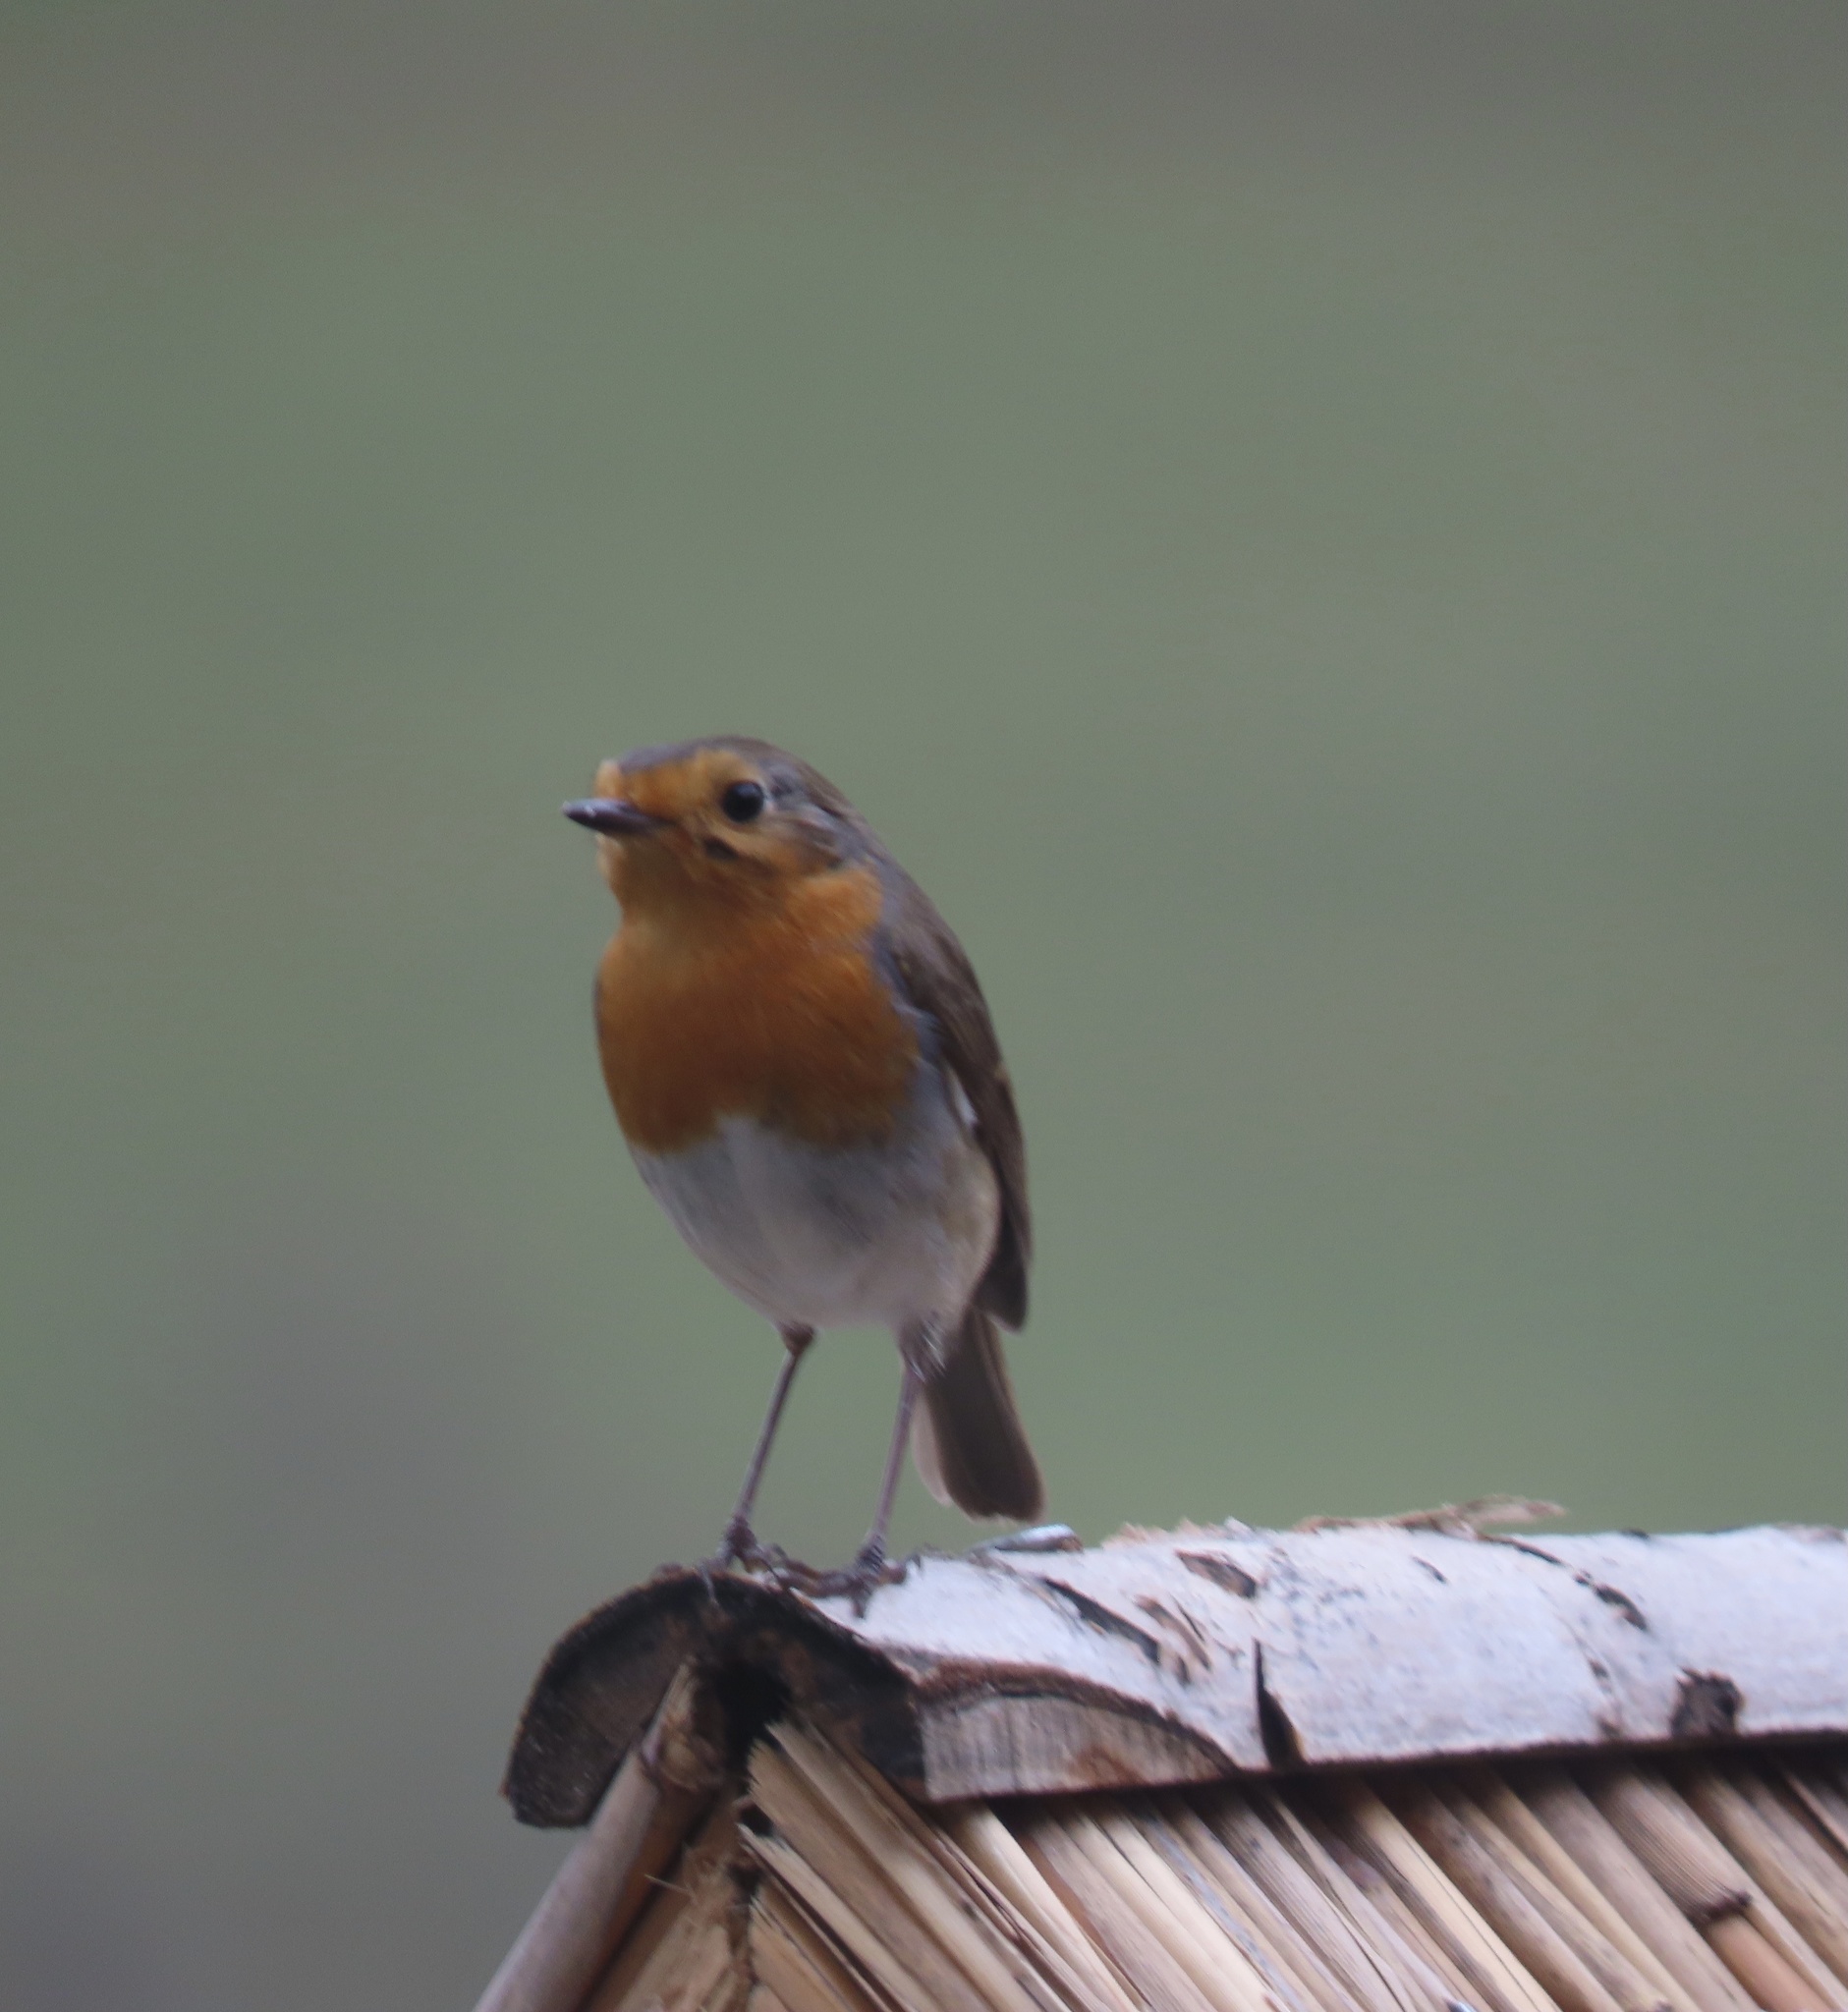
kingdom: Animalia
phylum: Chordata
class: Aves
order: Passeriformes
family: Muscicapidae
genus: Erithacus
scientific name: Erithacus rubecula
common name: European robin
